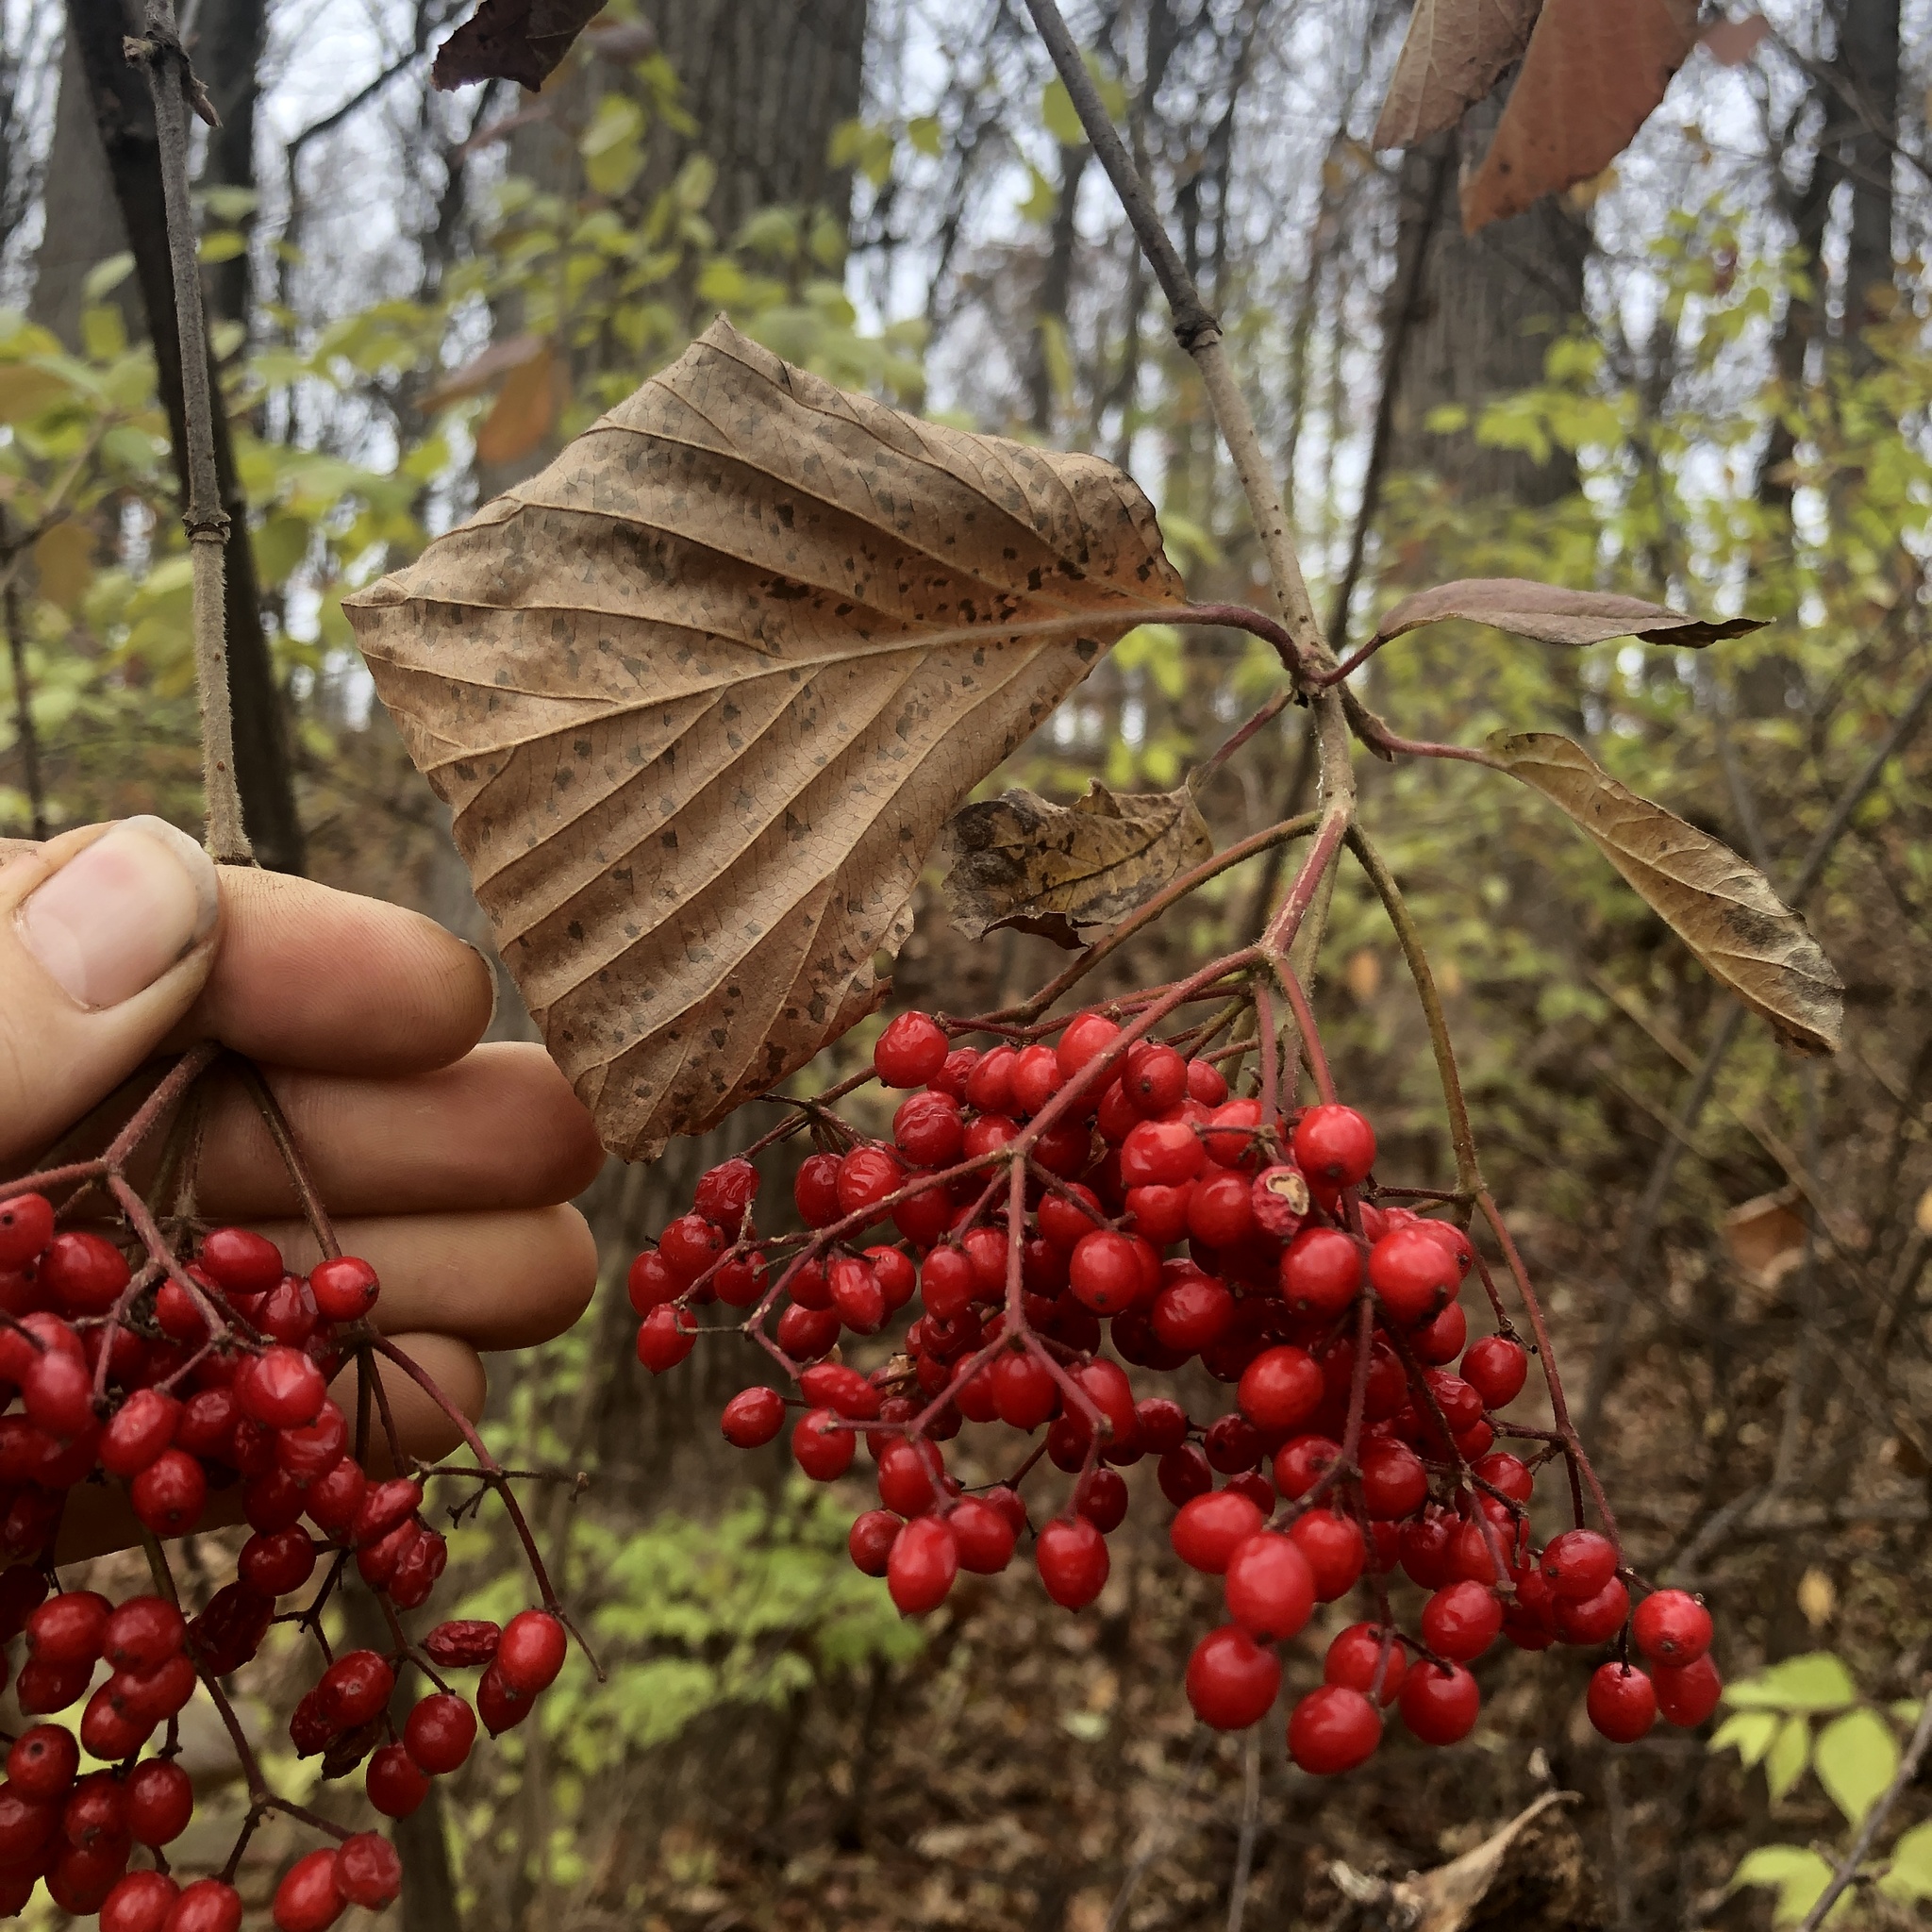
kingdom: Plantae
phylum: Tracheophyta
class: Magnoliopsida
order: Dipsacales
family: Viburnaceae
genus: Viburnum
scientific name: Viburnum dilatatum
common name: Linden arrowwood
